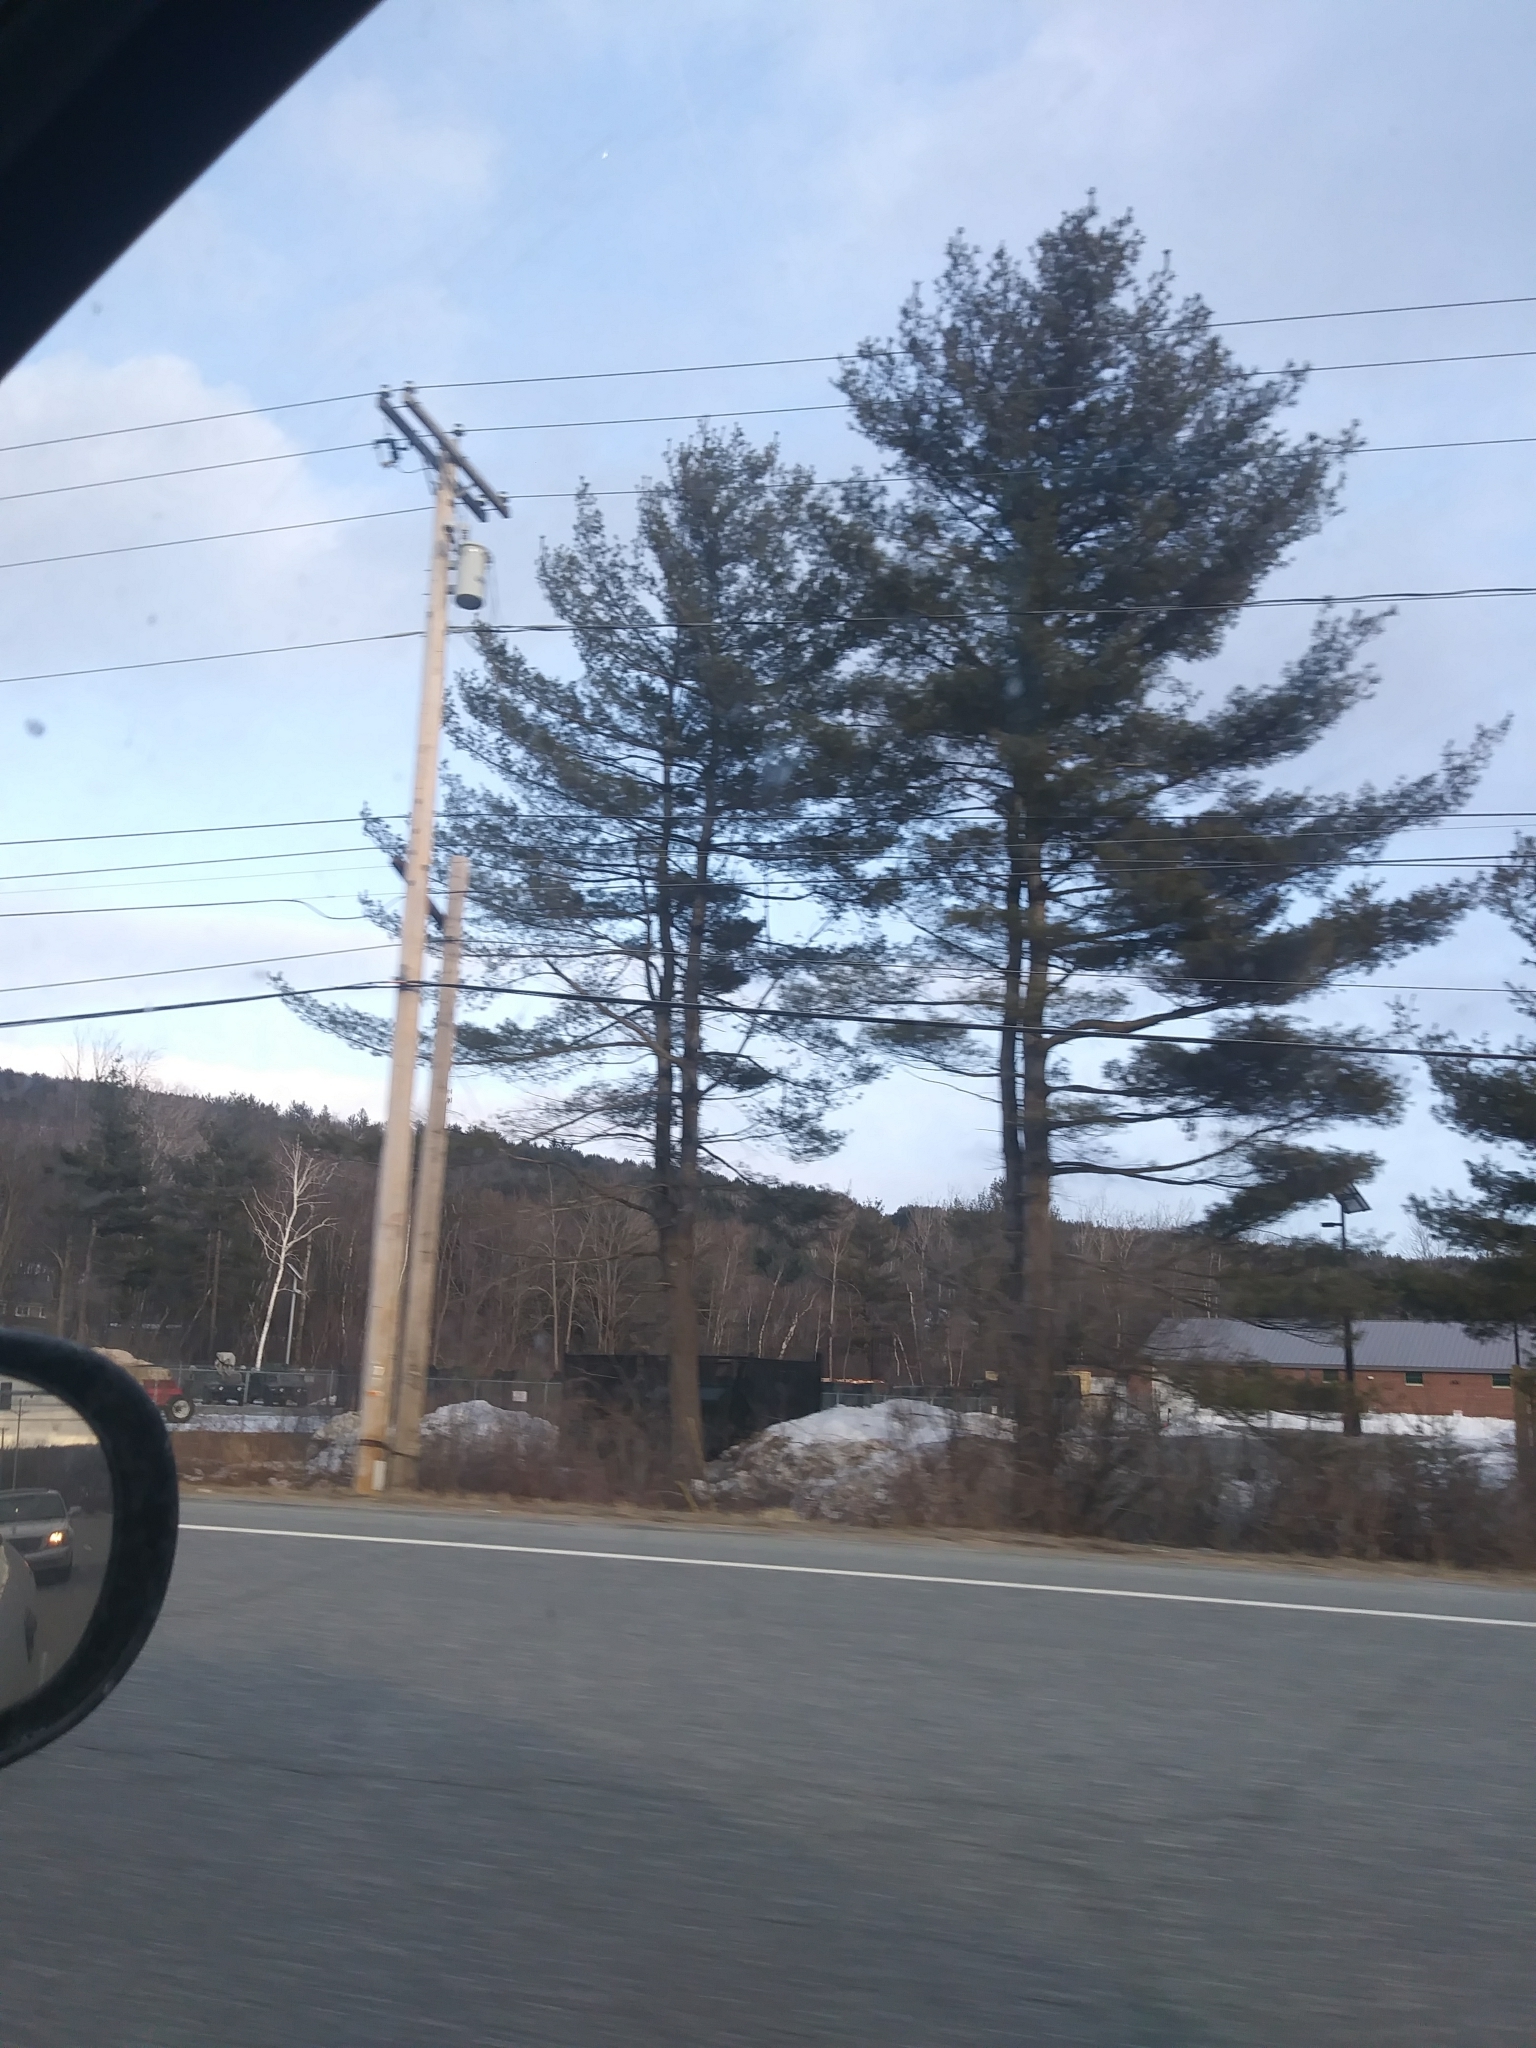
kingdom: Plantae
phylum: Tracheophyta
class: Pinopsida
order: Pinales
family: Pinaceae
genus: Pinus
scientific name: Pinus strobus
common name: Weymouth pine
